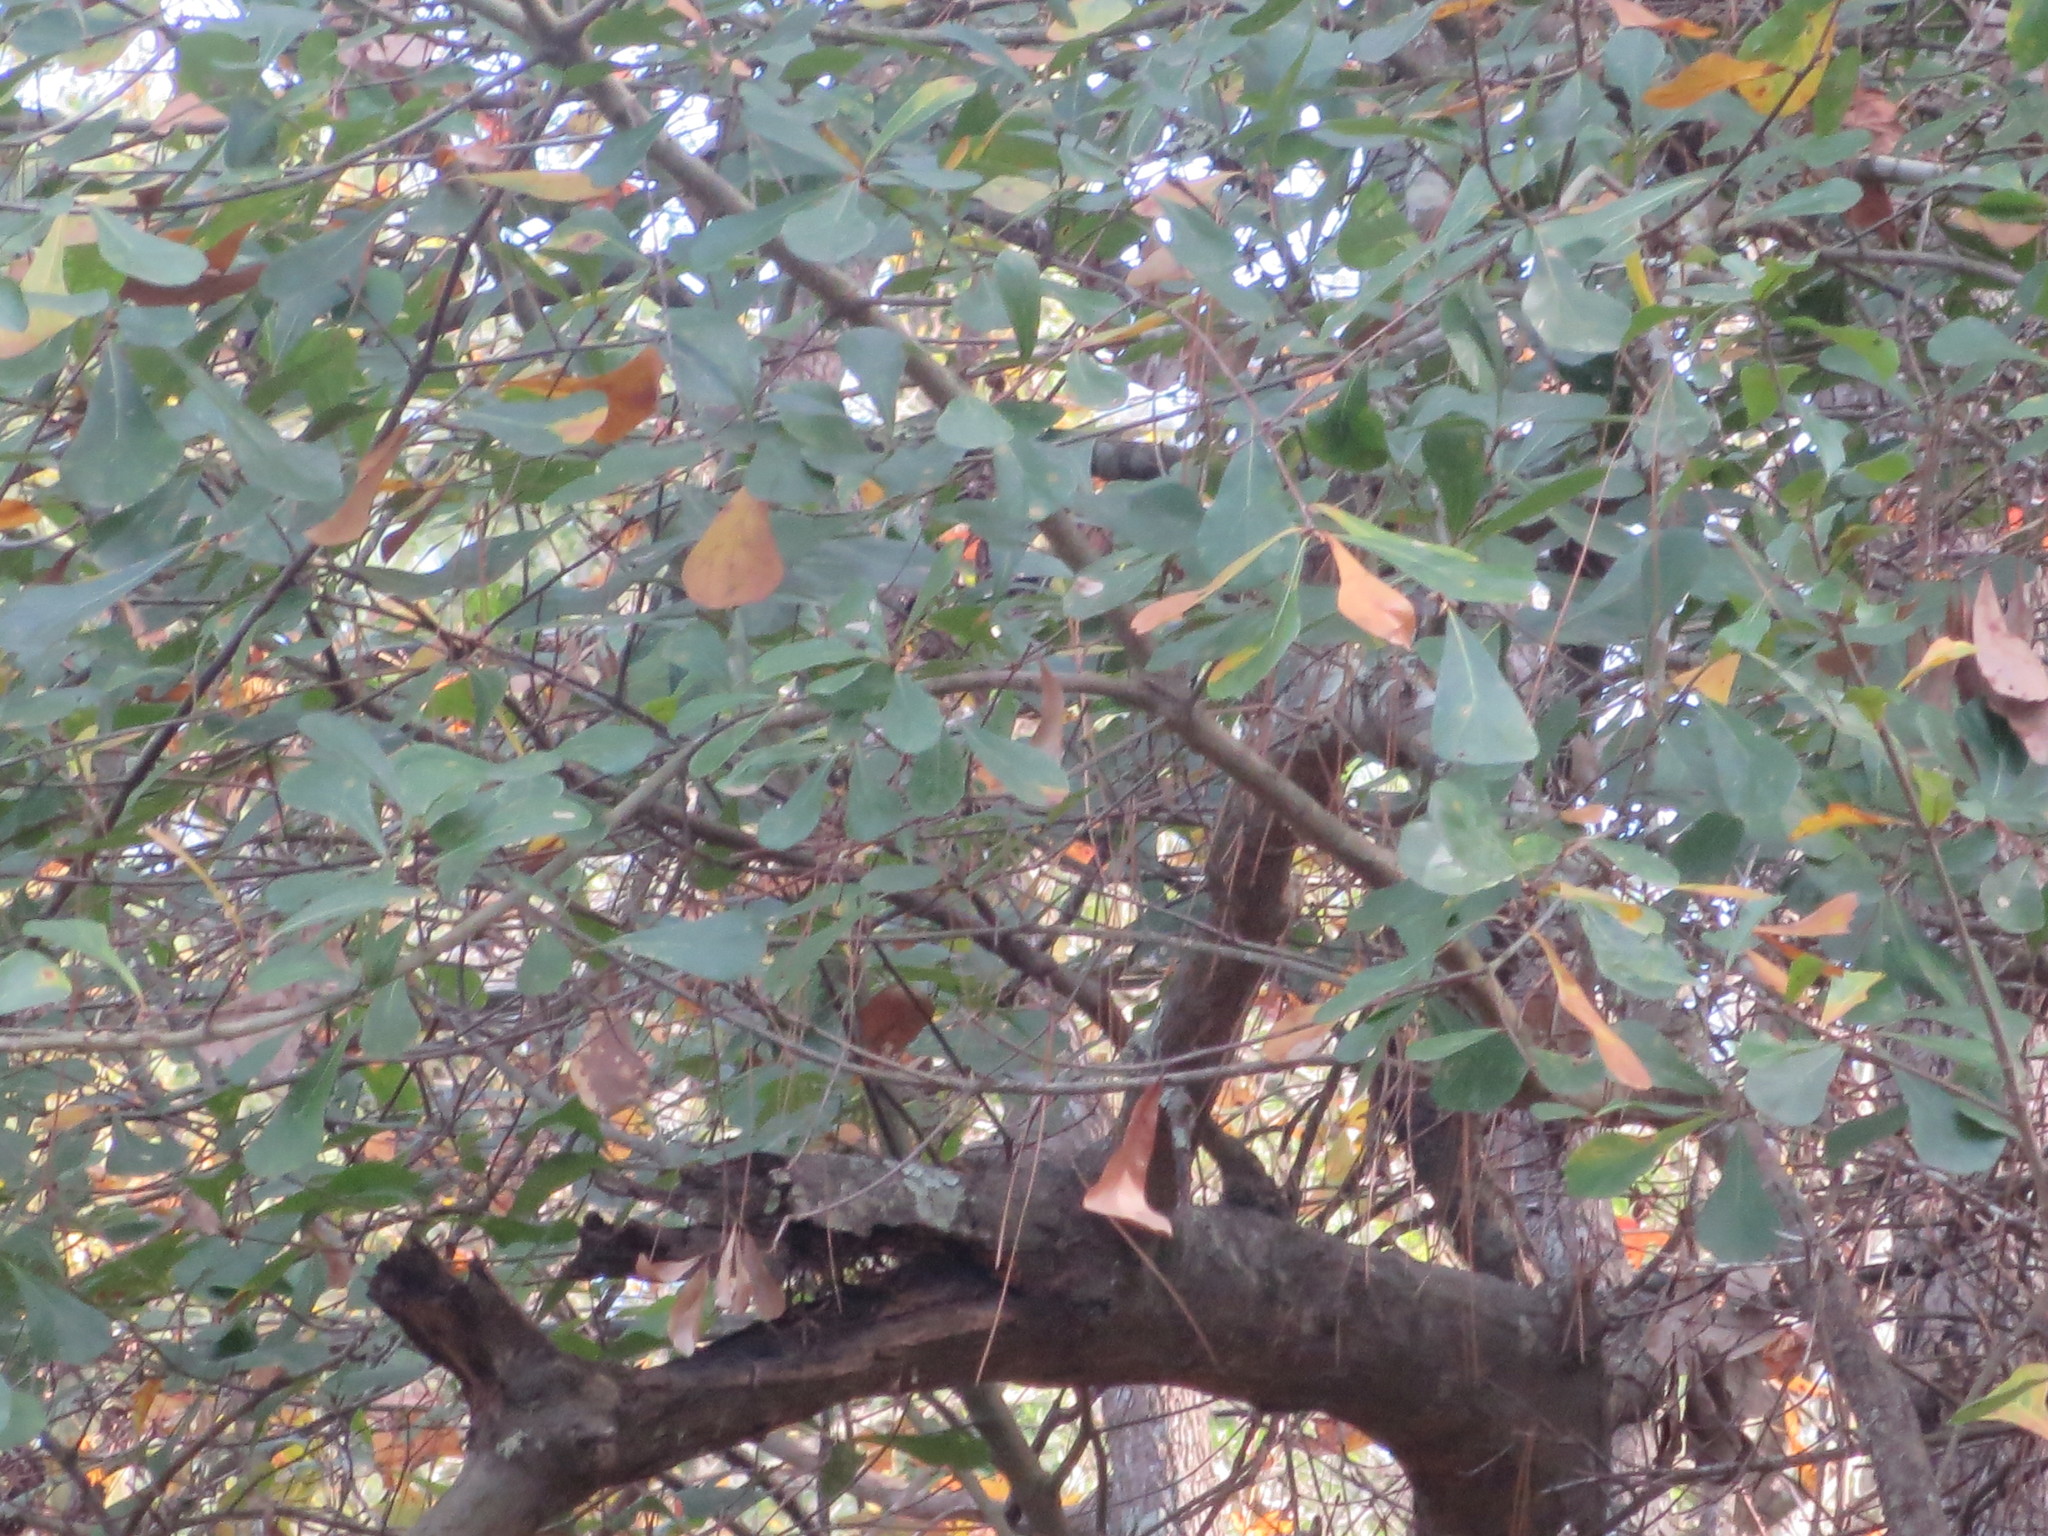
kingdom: Plantae
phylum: Tracheophyta
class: Magnoliopsida
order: Fagales
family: Fagaceae
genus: Quercus
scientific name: Quercus nigra
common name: Water oak
